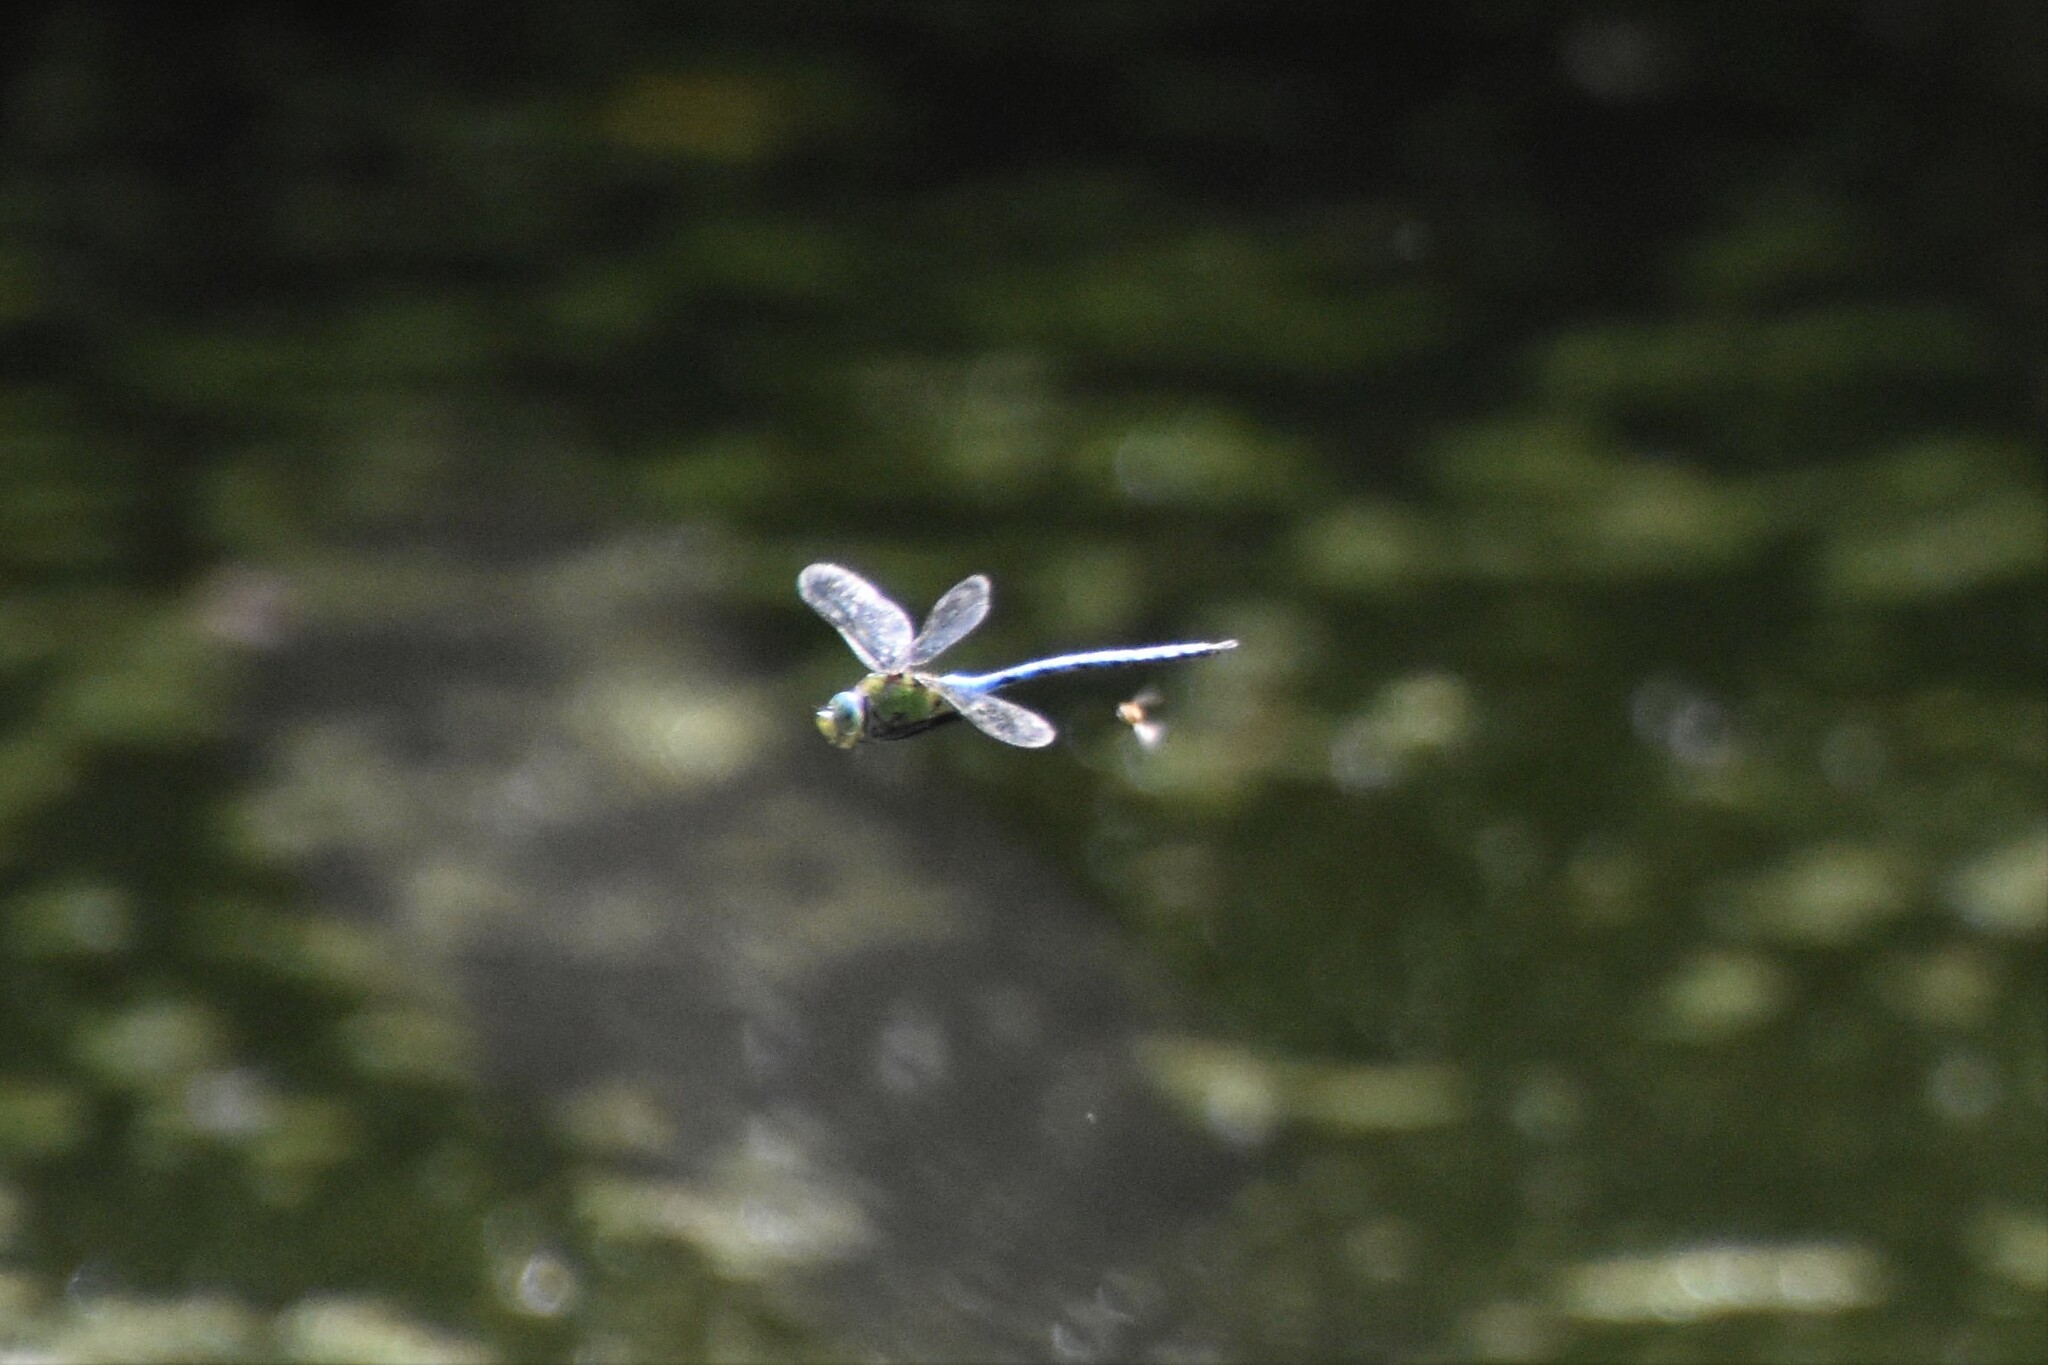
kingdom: Animalia
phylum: Arthropoda
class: Insecta
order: Odonata
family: Aeshnidae
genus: Anax
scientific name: Anax imperator
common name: Emperor dragonfly
